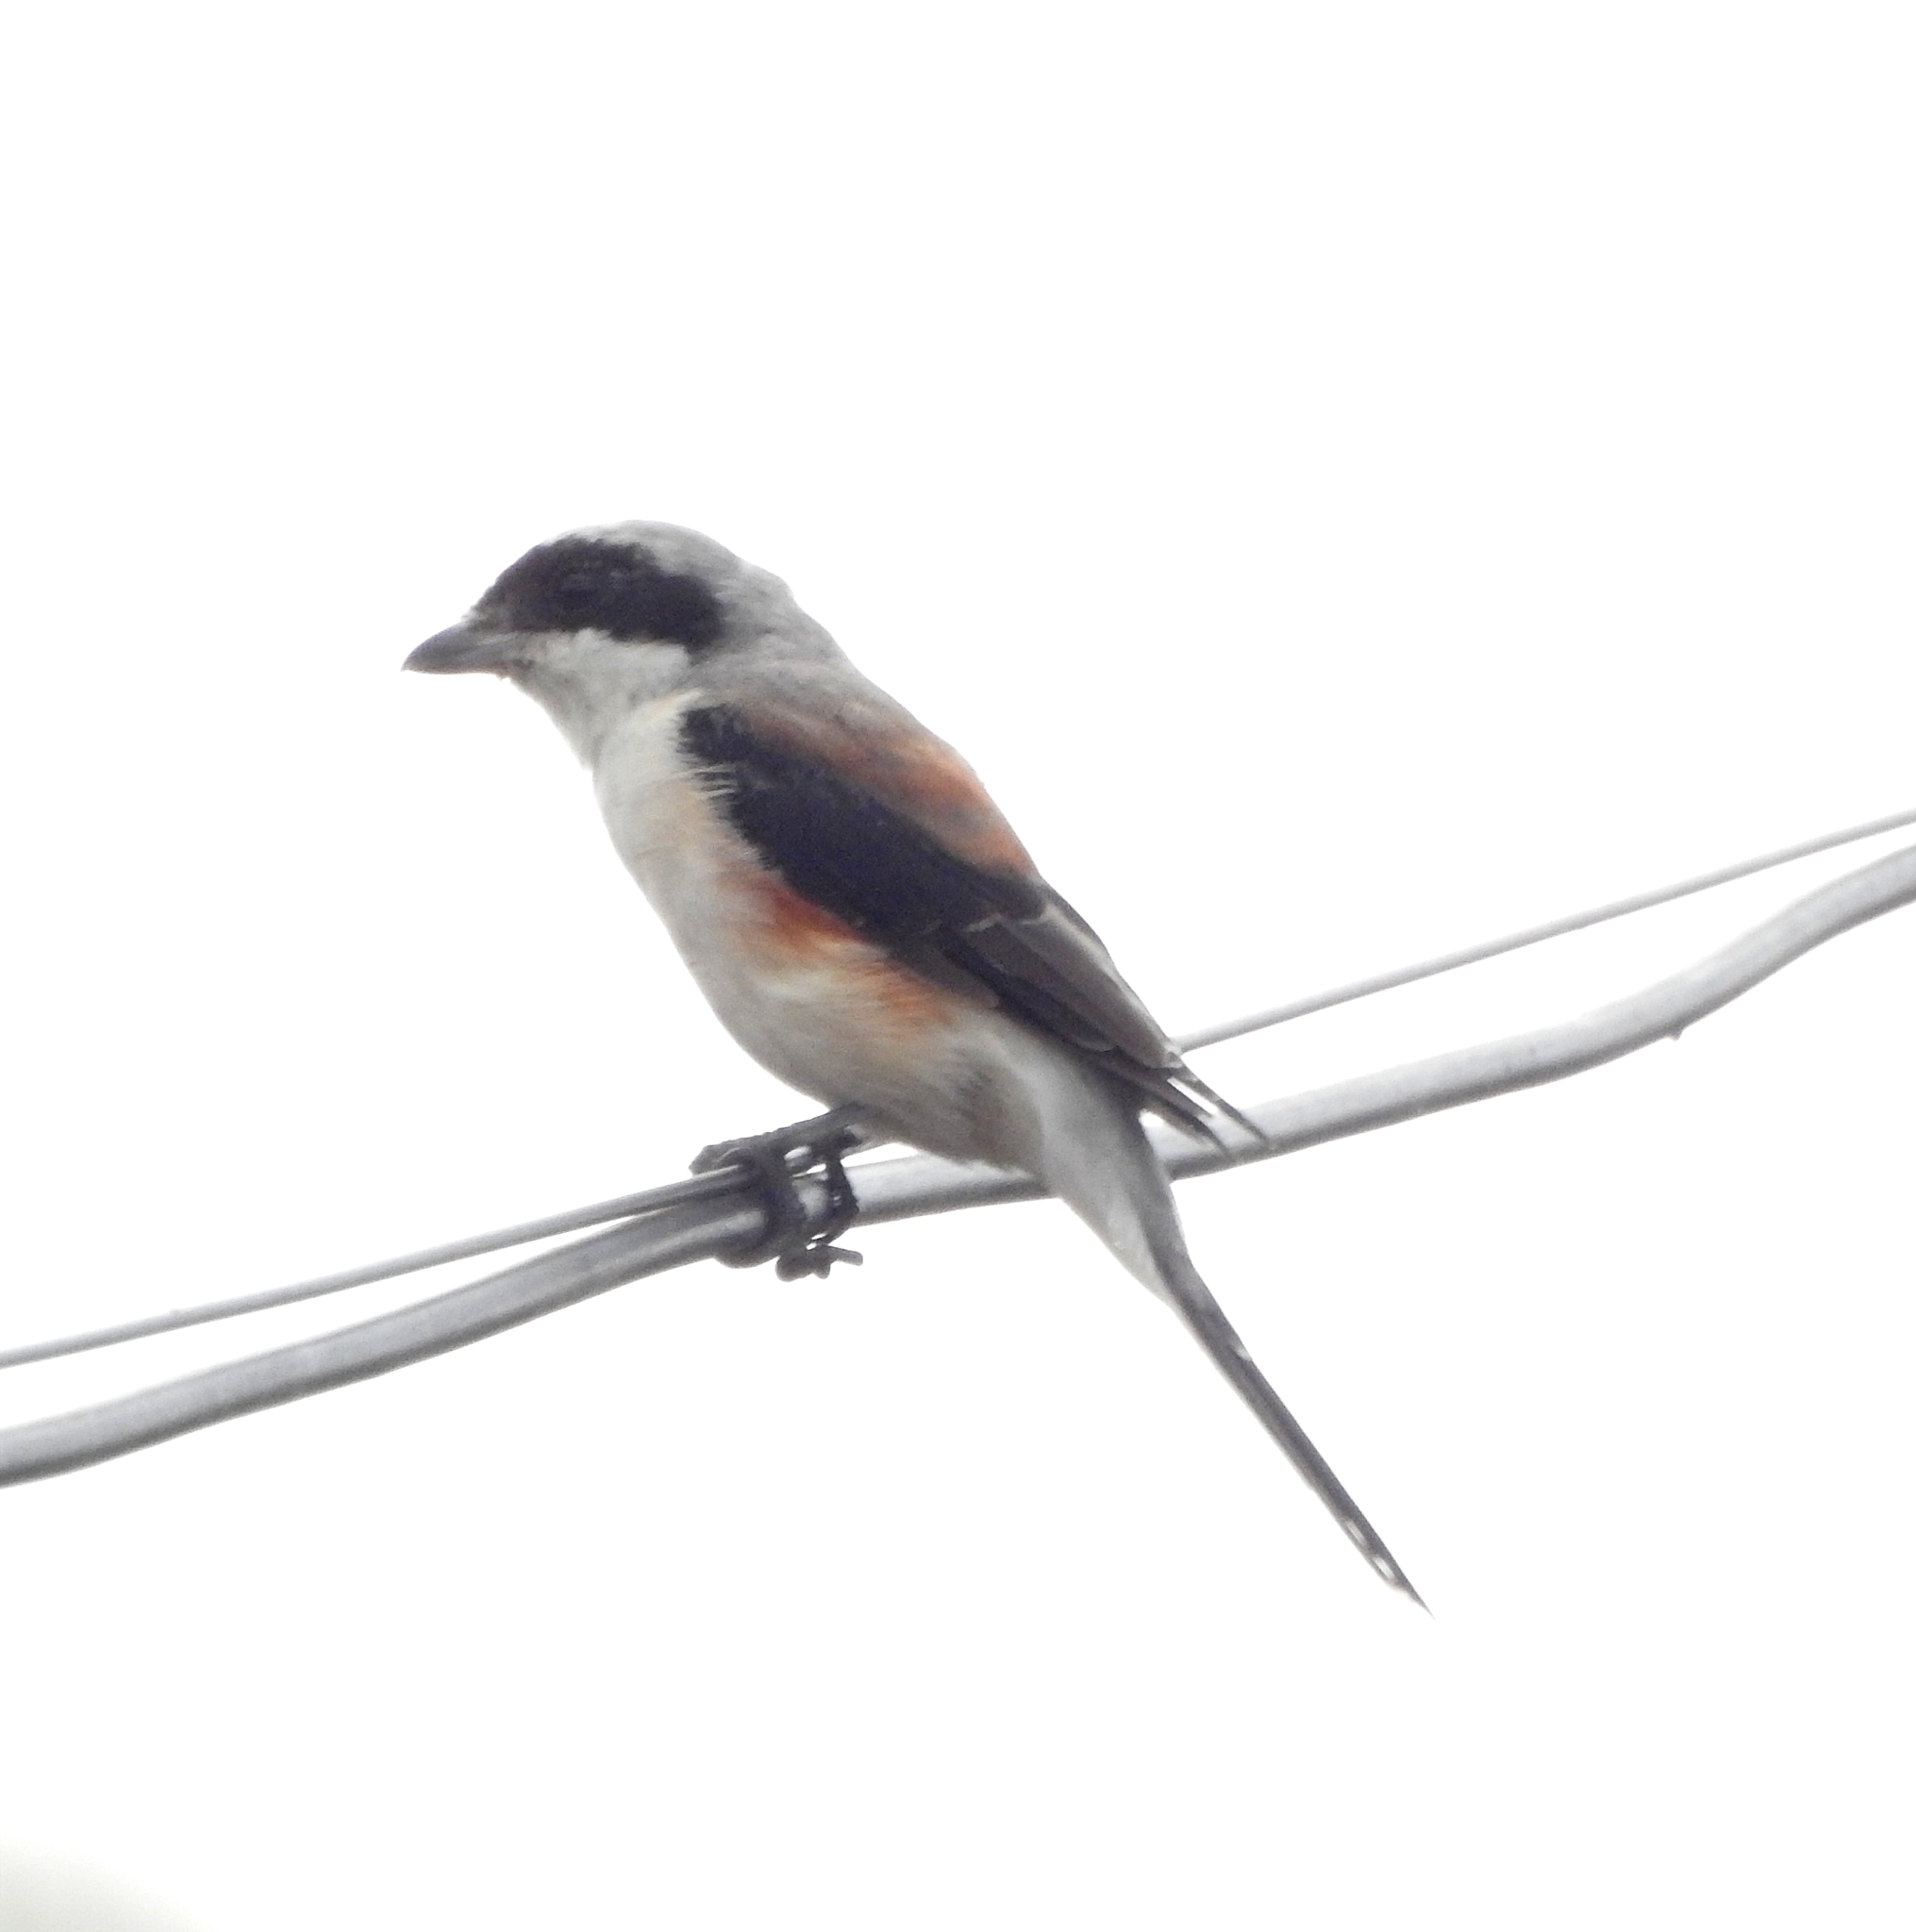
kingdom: Animalia
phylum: Chordata
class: Aves
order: Passeriformes
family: Laniidae
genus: Lanius
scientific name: Lanius vittatus
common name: Bay-backed shrike
